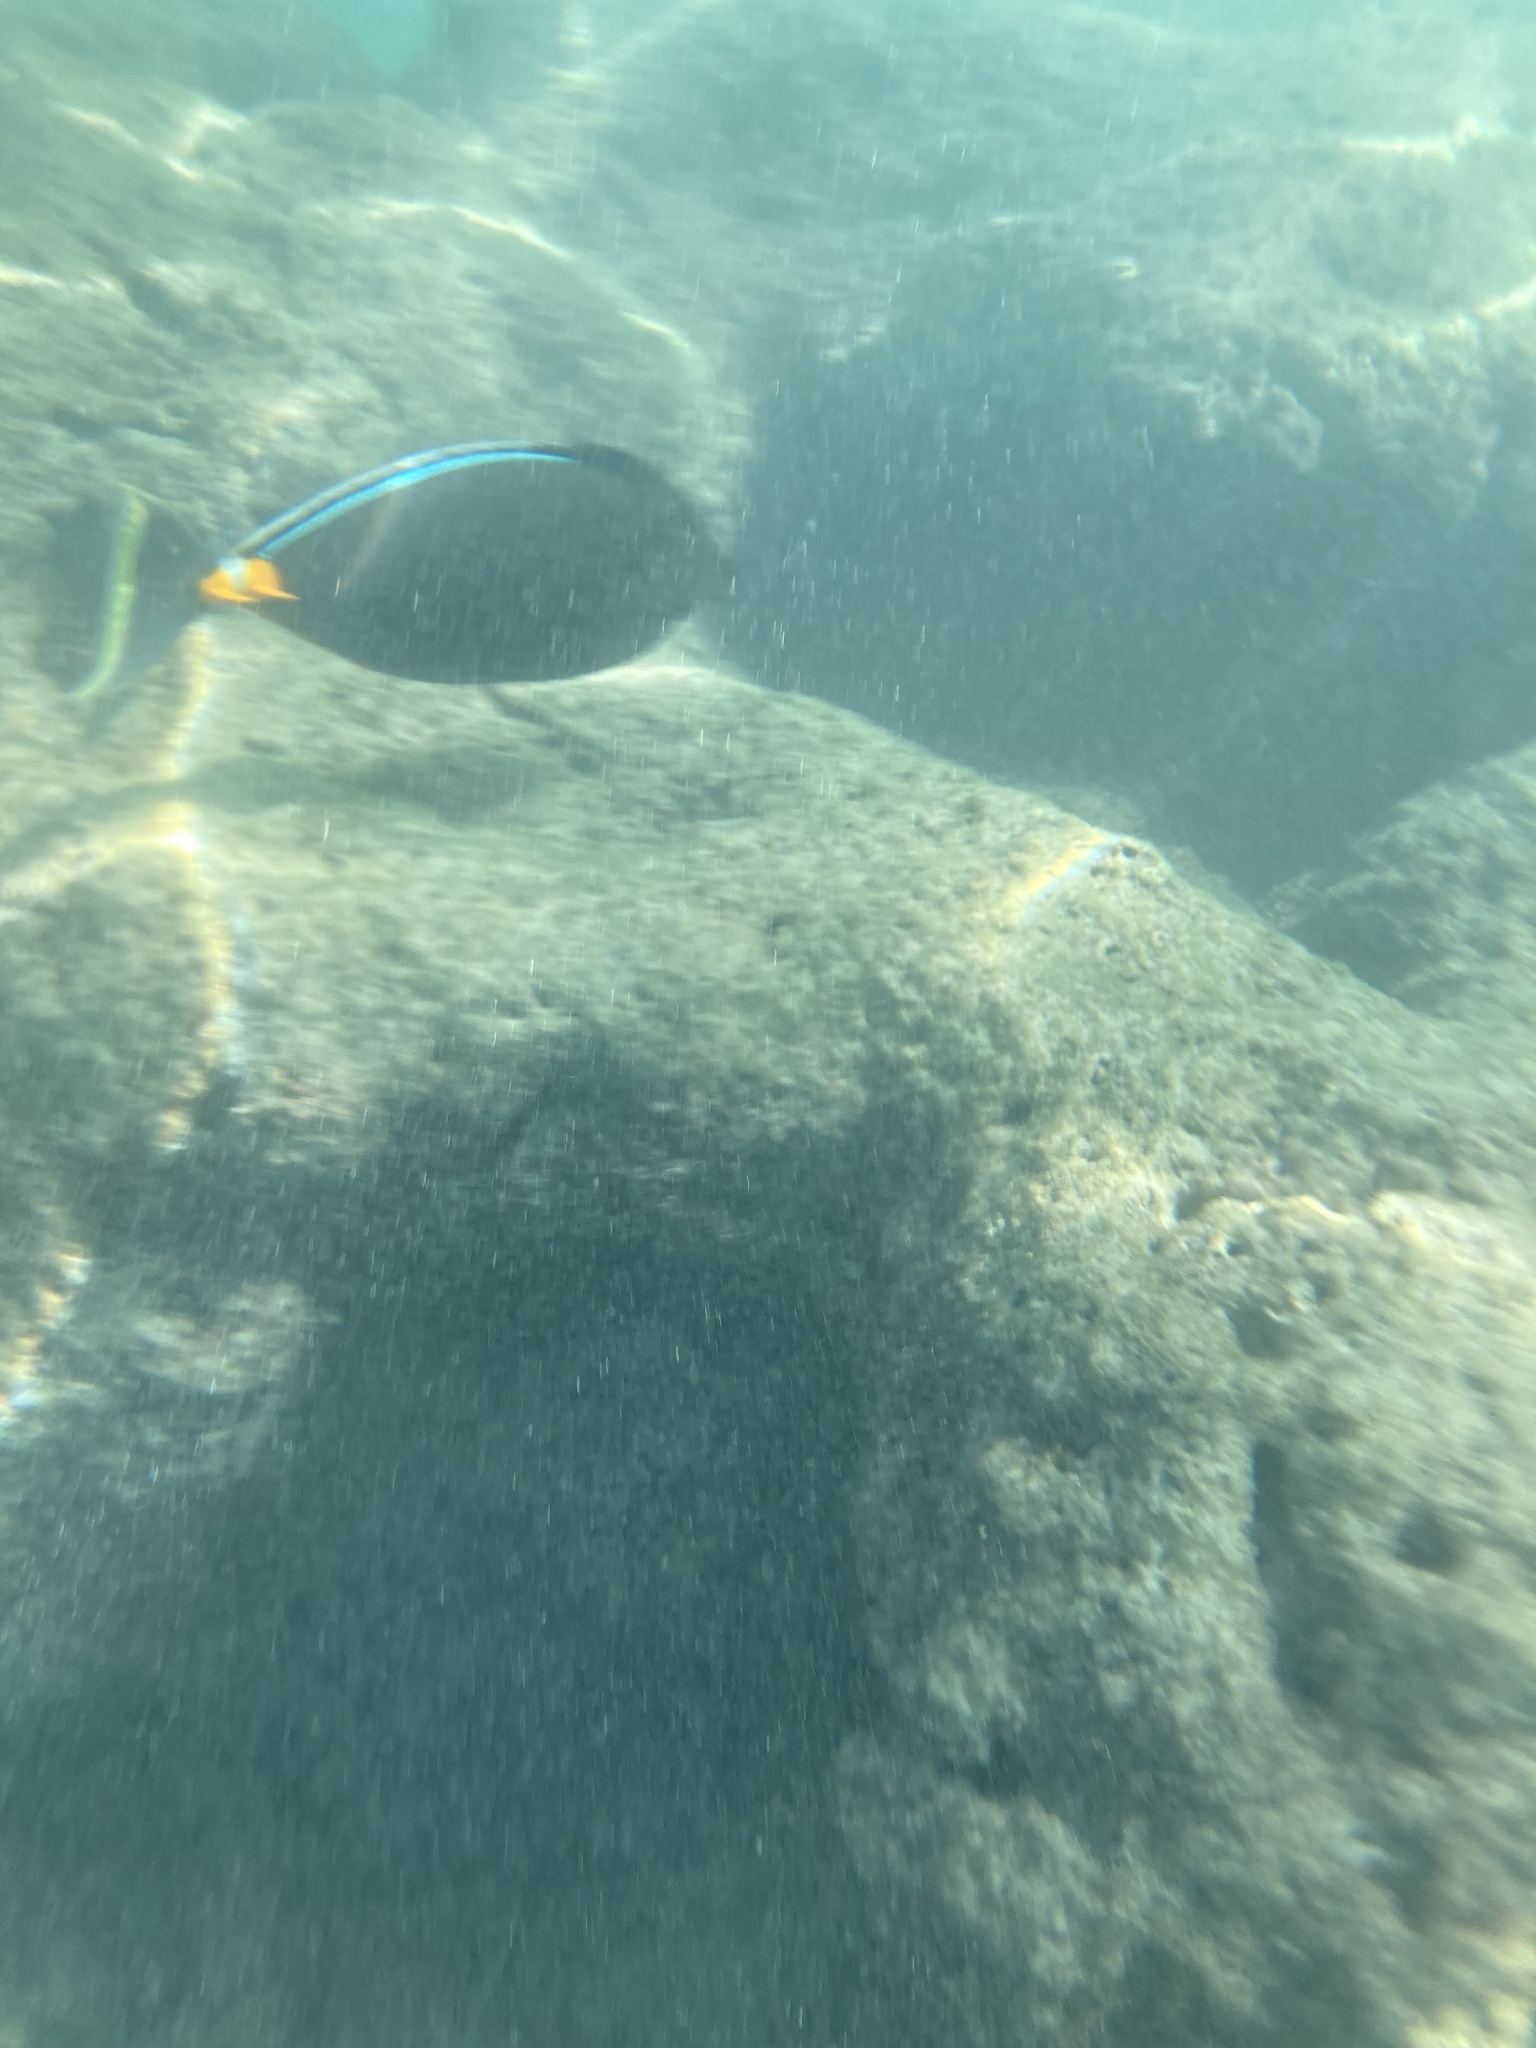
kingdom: Animalia
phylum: Chordata
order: Perciformes
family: Acanthuridae
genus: Naso
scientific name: Naso lituratus
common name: Orangespine unicornfish
